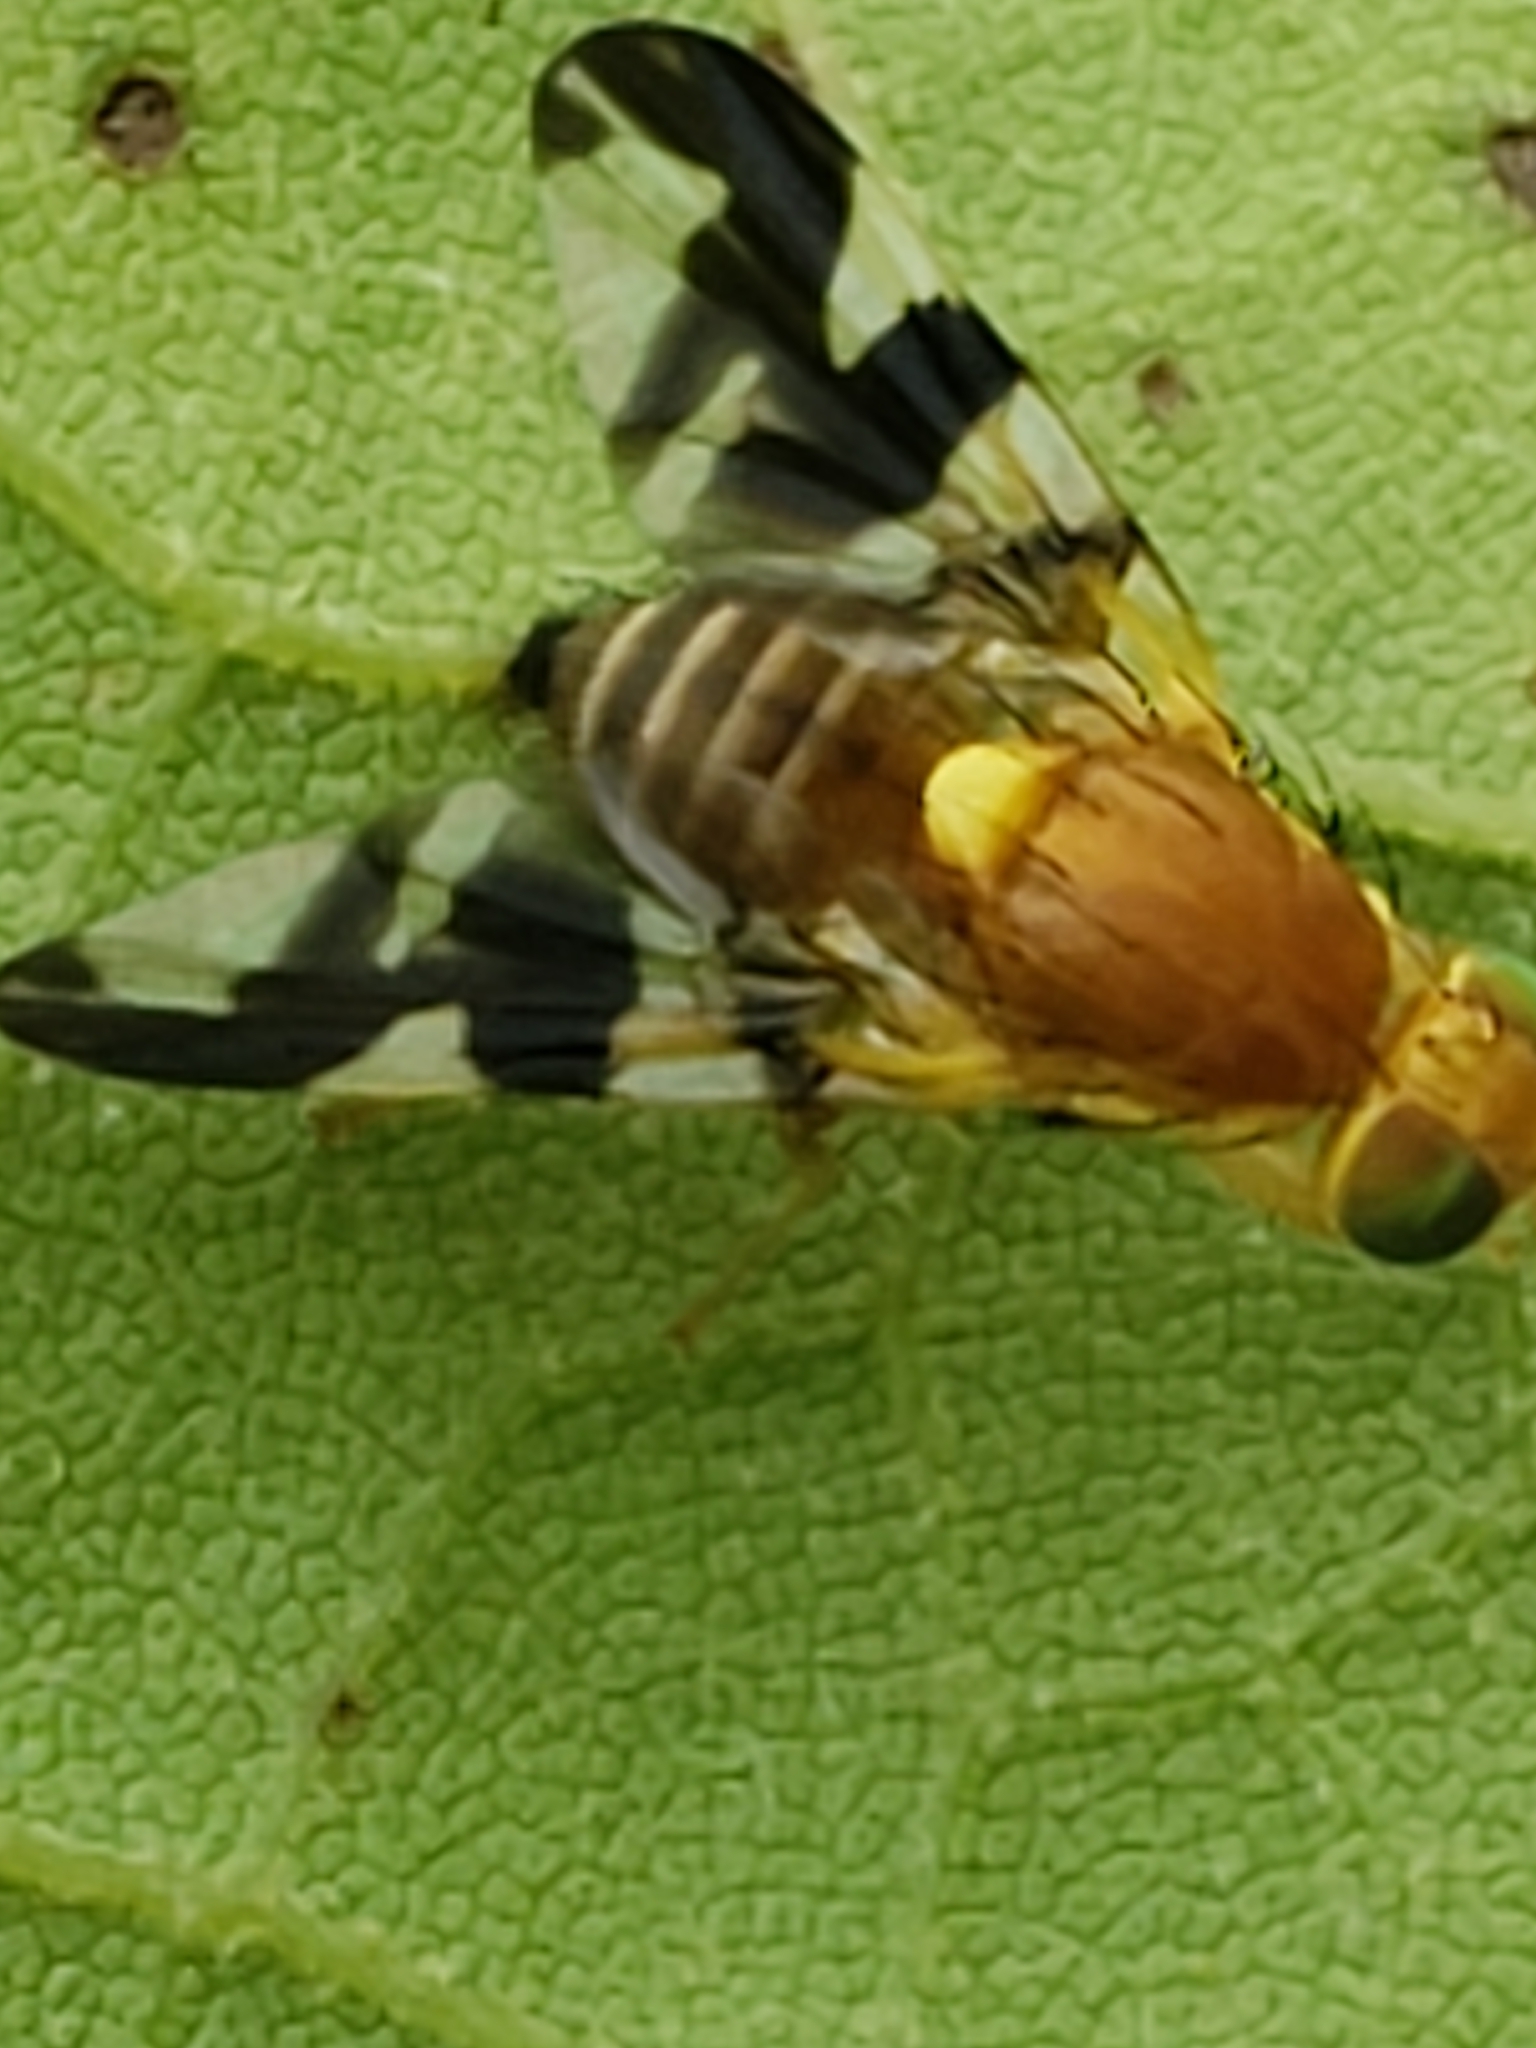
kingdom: Animalia
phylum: Arthropoda
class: Insecta
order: Diptera
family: Tephritidae
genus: Rhagoletis
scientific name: Rhagoletis suavis
